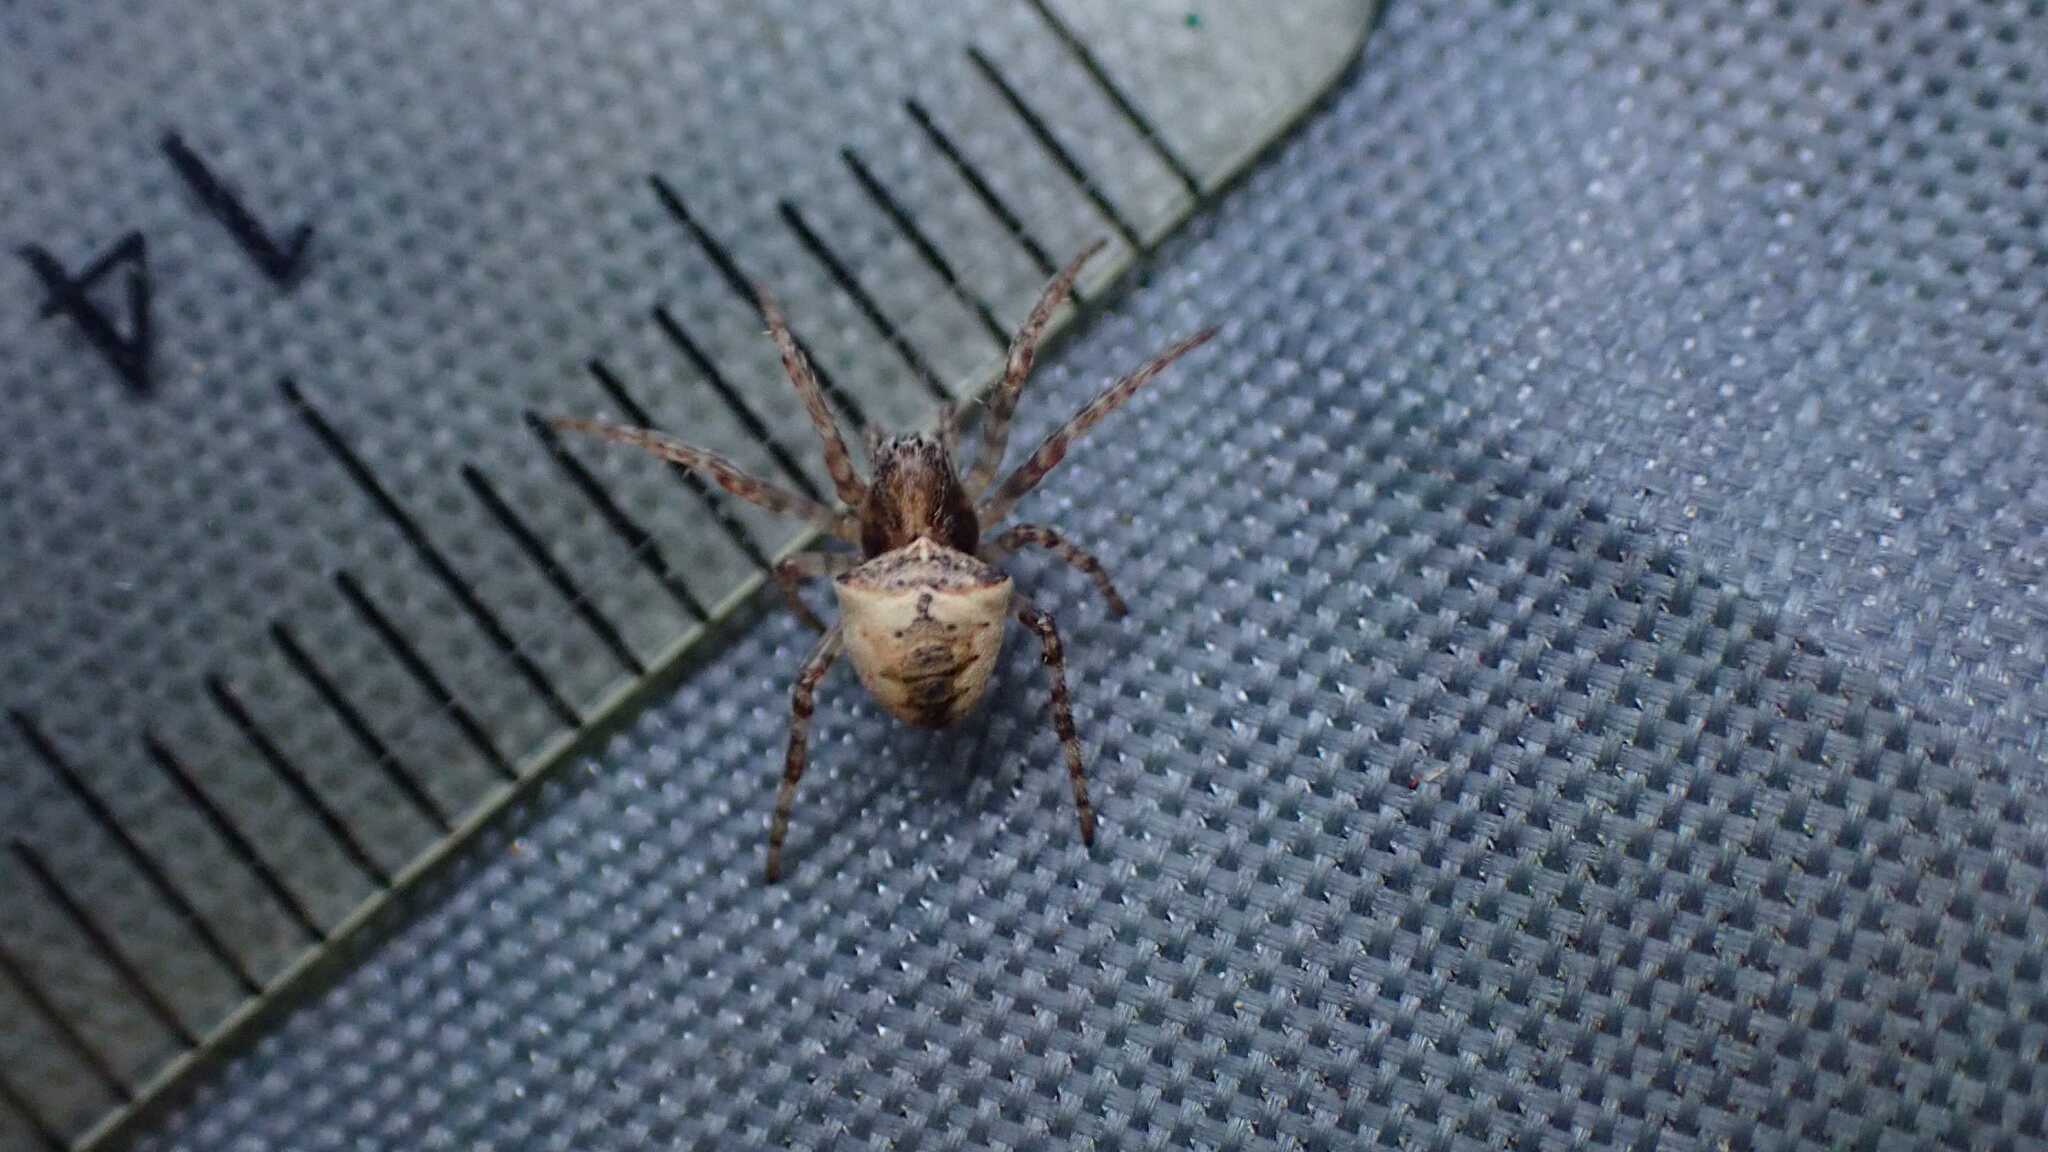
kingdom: Animalia
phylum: Arthropoda
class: Arachnida
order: Araneae
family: Araneidae
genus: Gibbaranea
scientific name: Gibbaranea bituberculata
